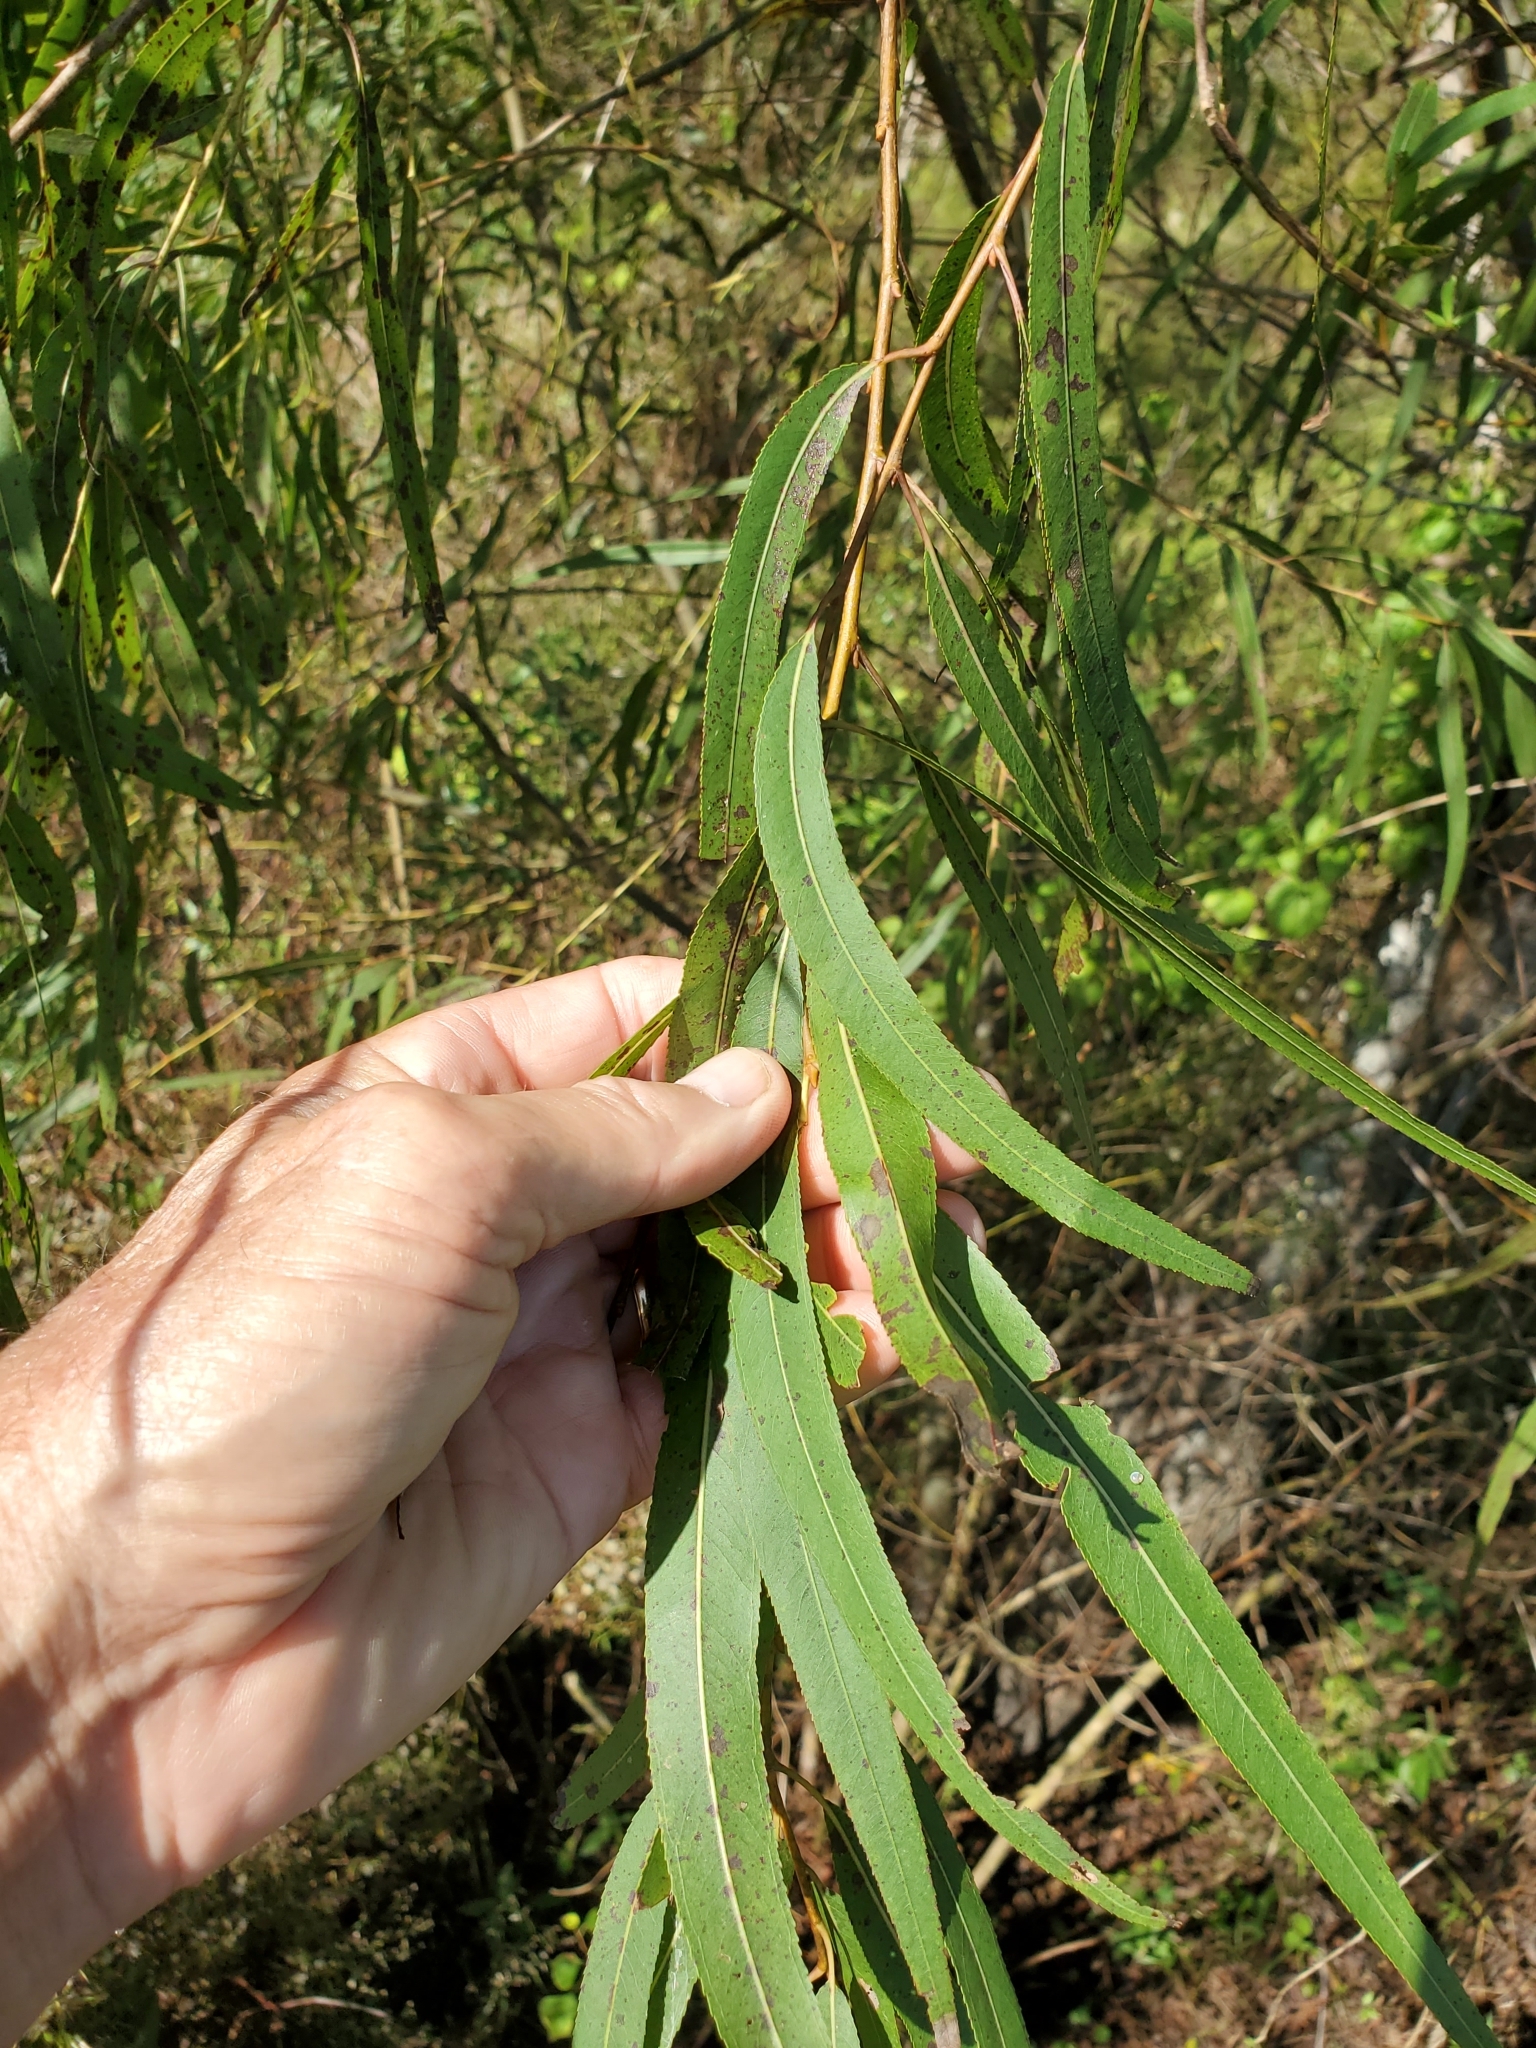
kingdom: Plantae
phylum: Tracheophyta
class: Magnoliopsida
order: Malpighiales
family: Salicaceae
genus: Salix
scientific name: Salix nigra
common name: Black willow
